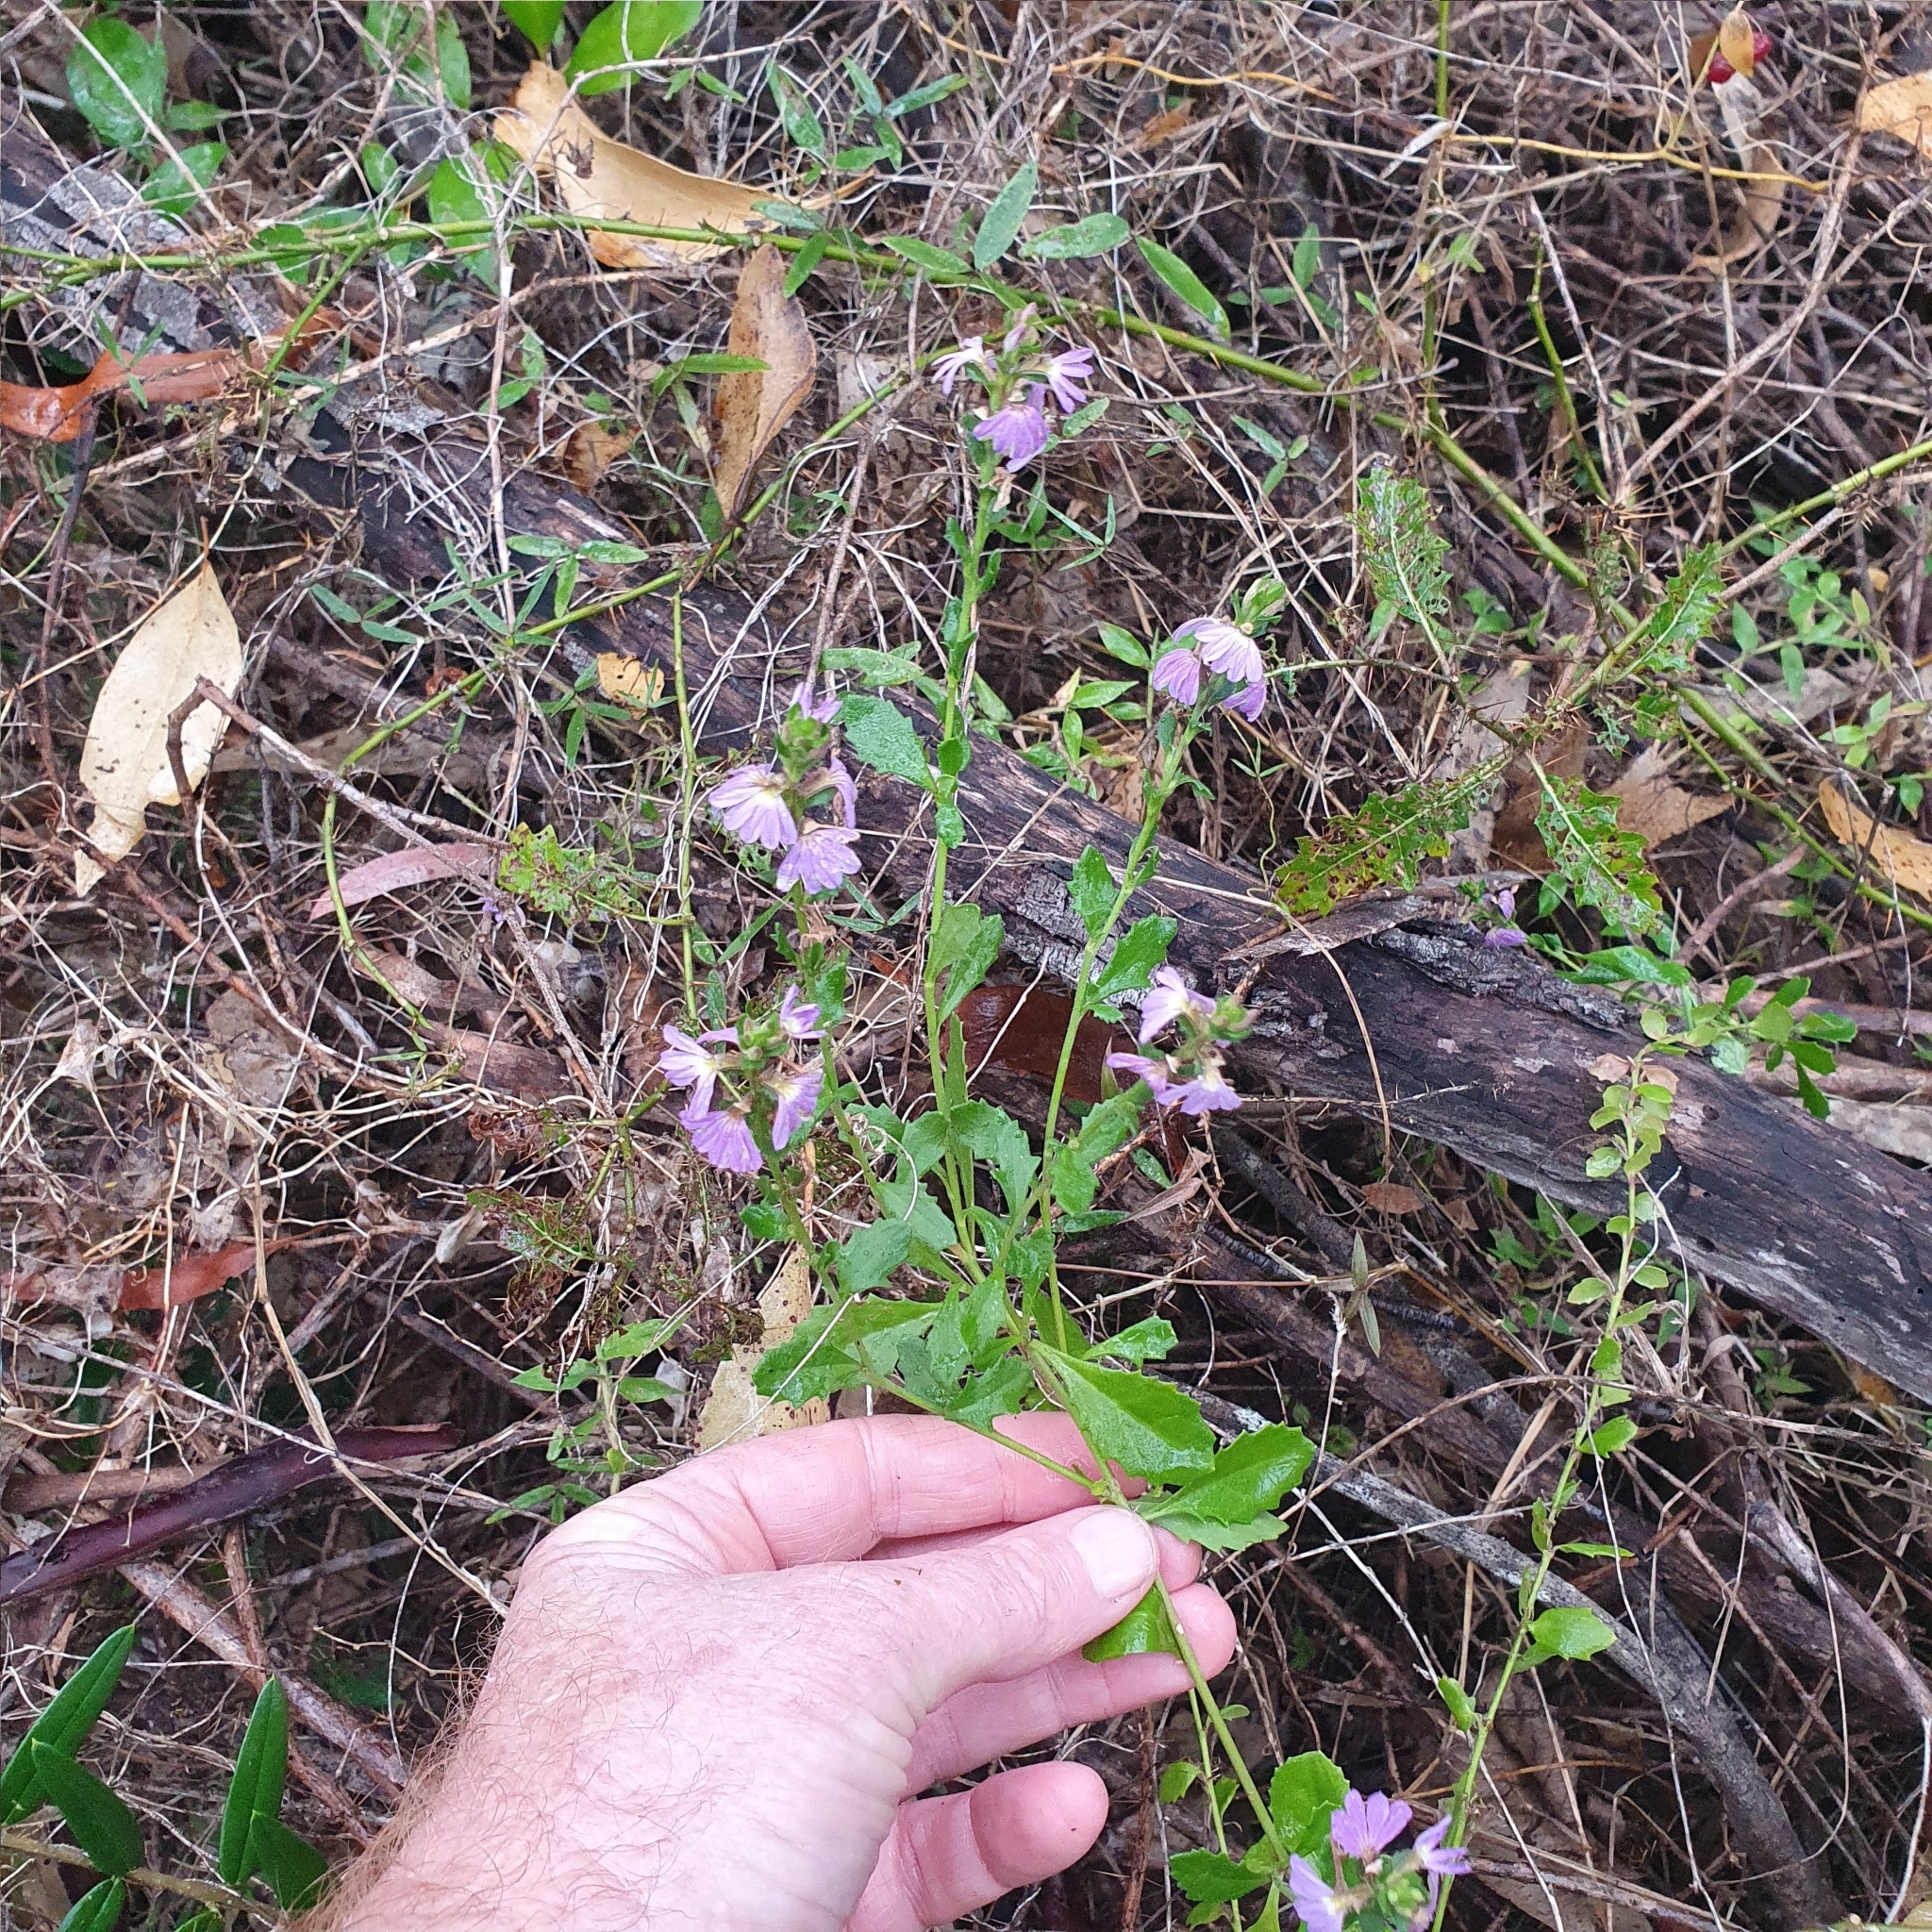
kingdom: Plantae
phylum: Tracheophyta
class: Magnoliopsida
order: Asterales
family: Goodeniaceae
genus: Scaevola
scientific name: Scaevola aemula
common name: Common fanflower
